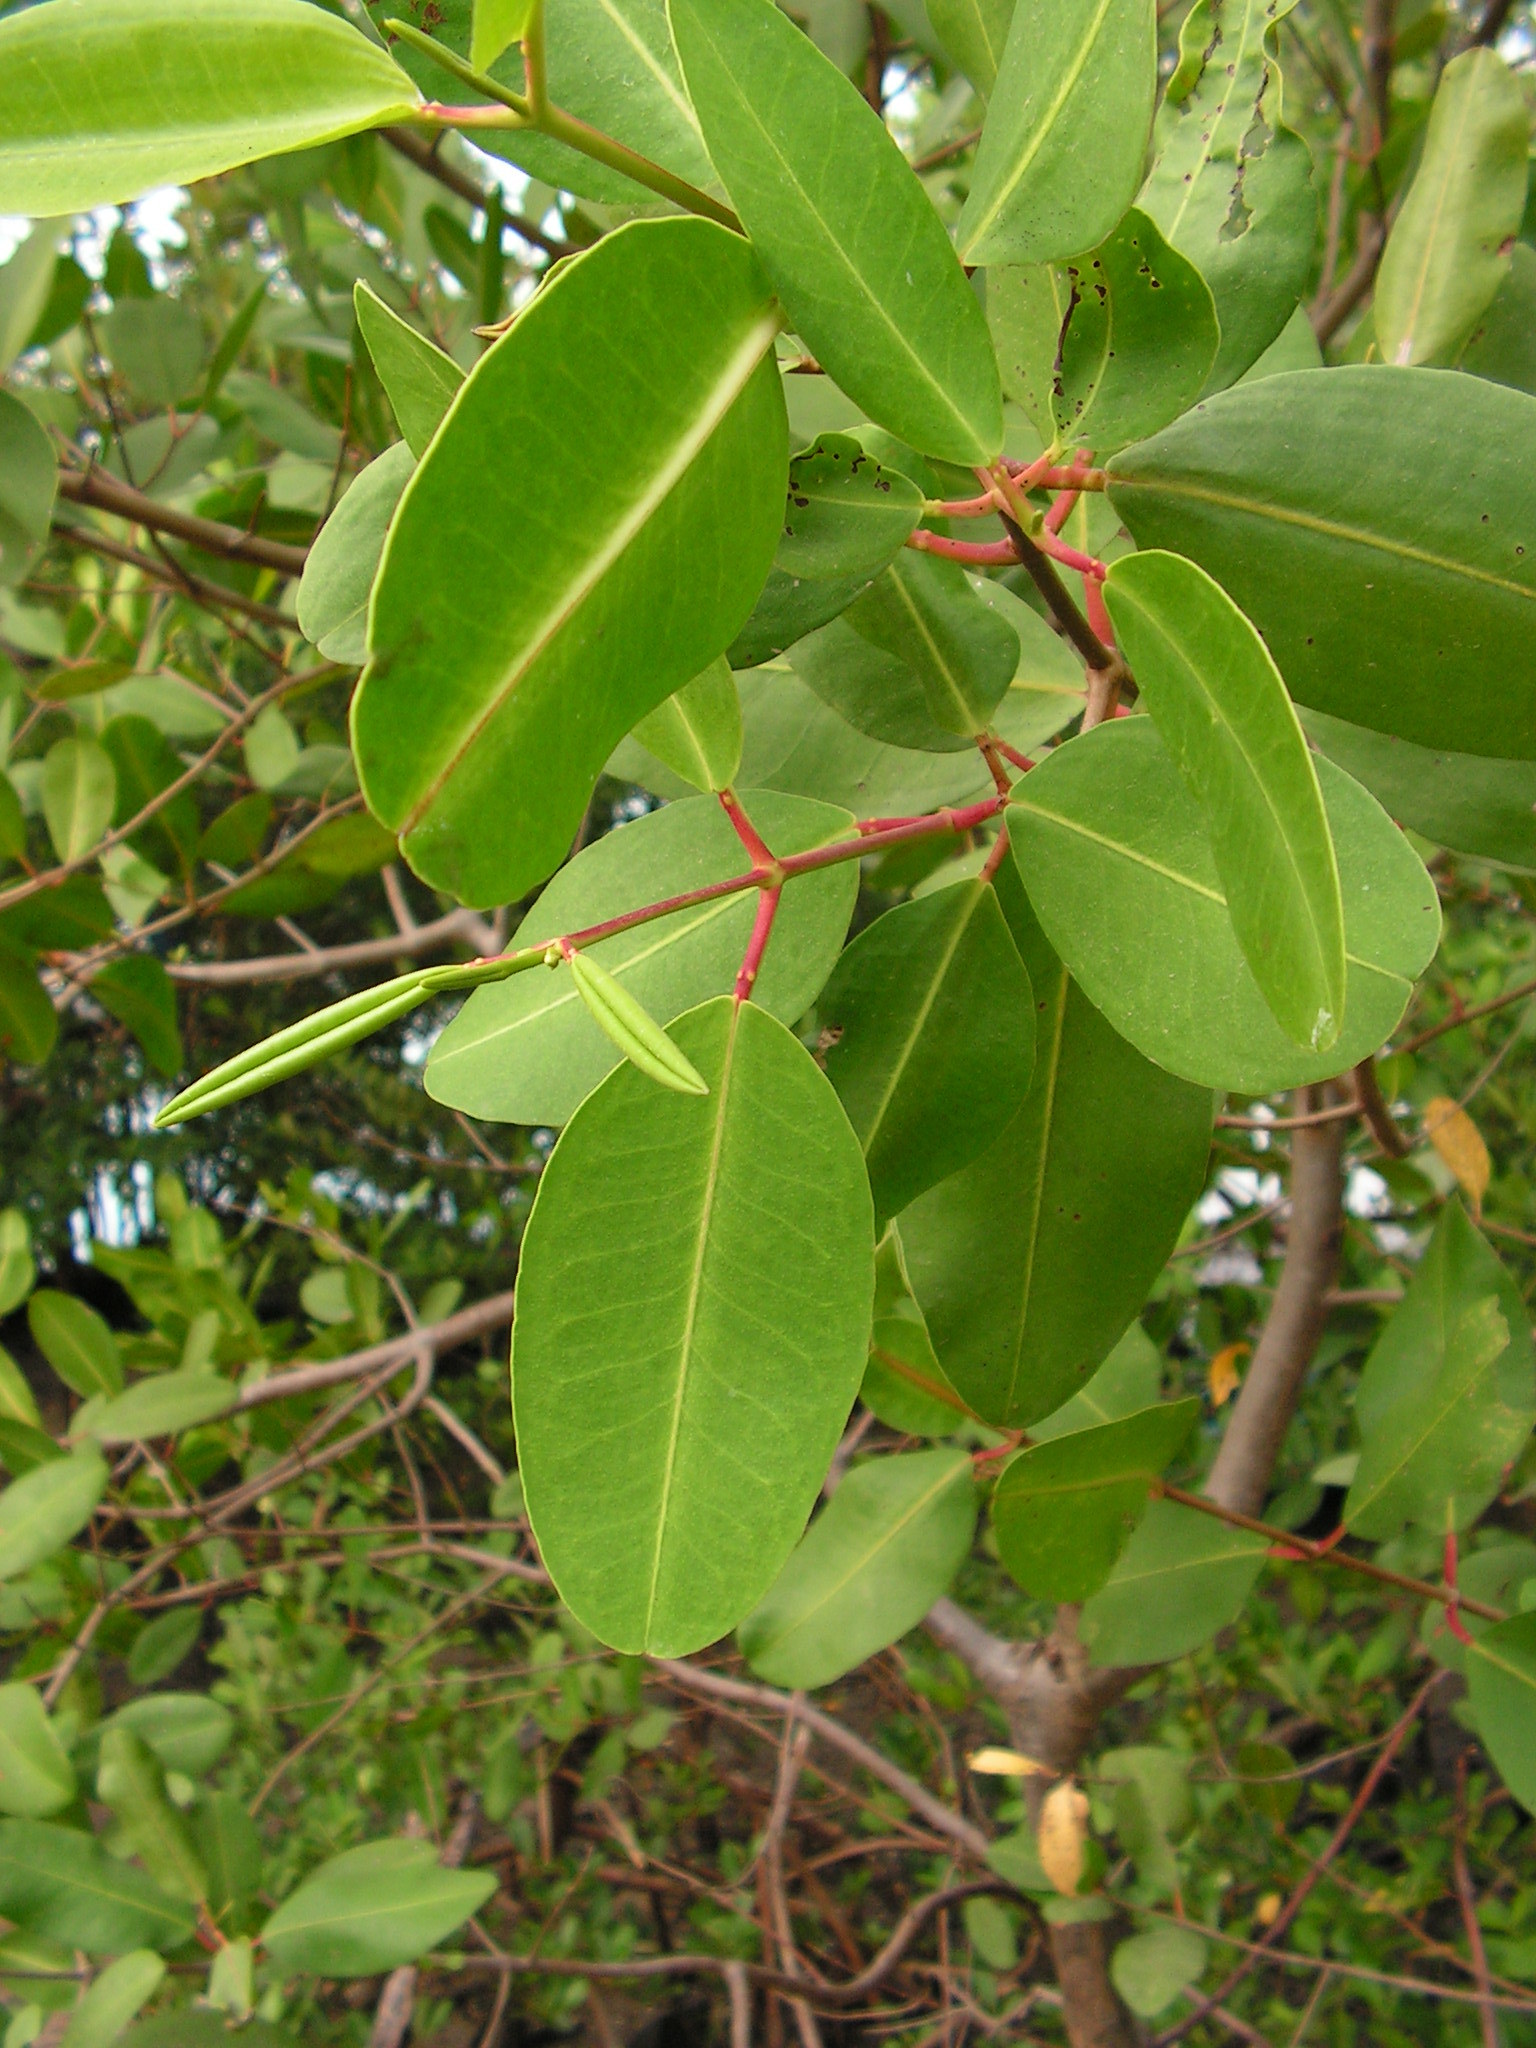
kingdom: Plantae
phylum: Tracheophyta
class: Magnoliopsida
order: Myrtales
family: Combretaceae
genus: Laguncularia
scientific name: Laguncularia racemosa
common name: White mangrove
